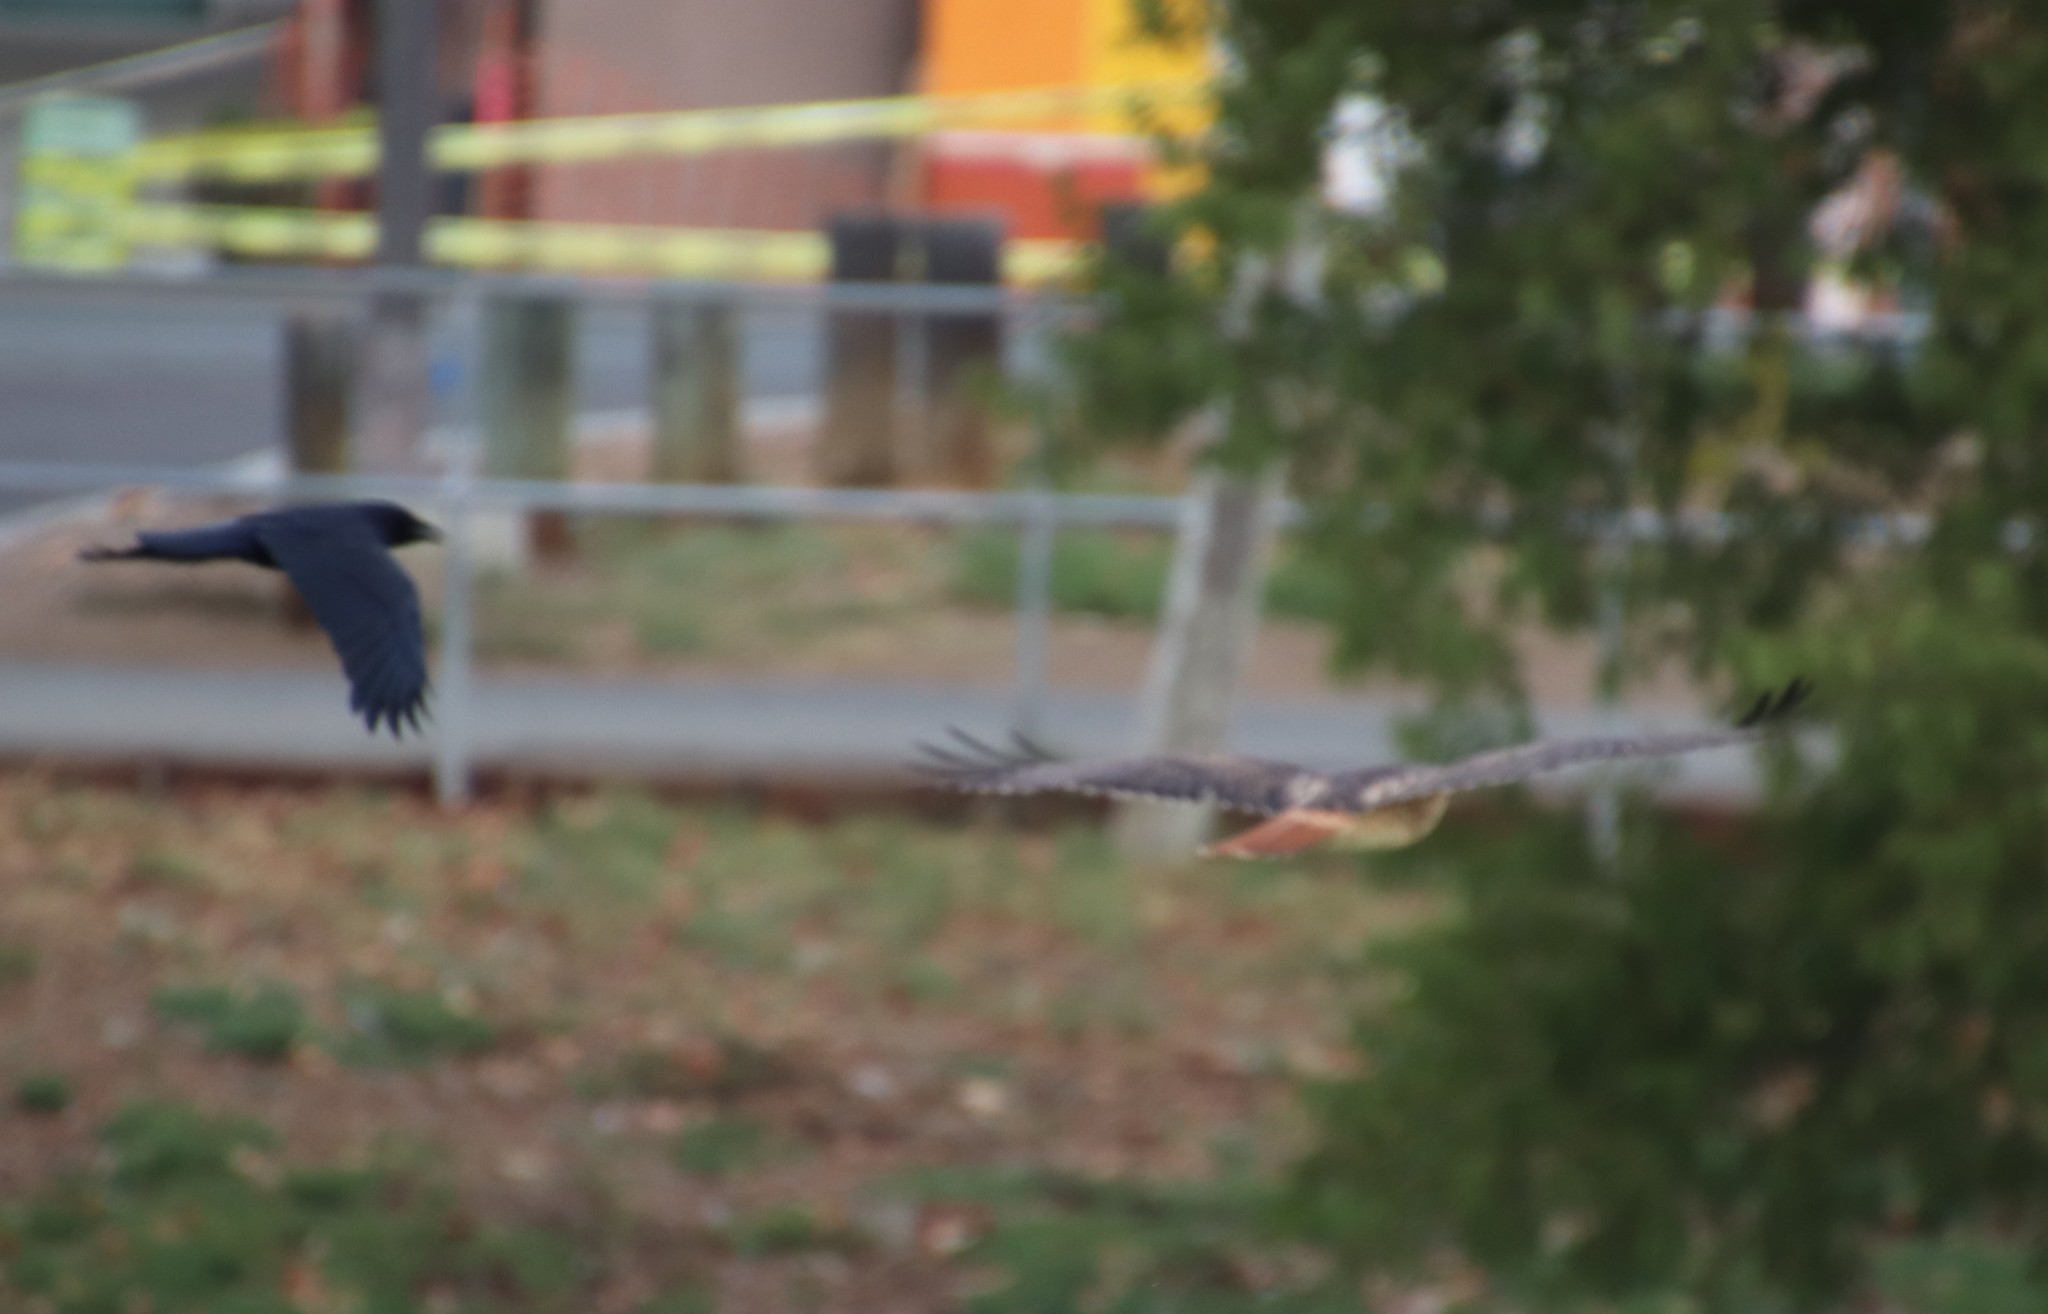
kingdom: Animalia
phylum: Chordata
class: Aves
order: Passeriformes
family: Corvidae
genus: Corvus
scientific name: Corvus brachyrhynchos
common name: American crow
